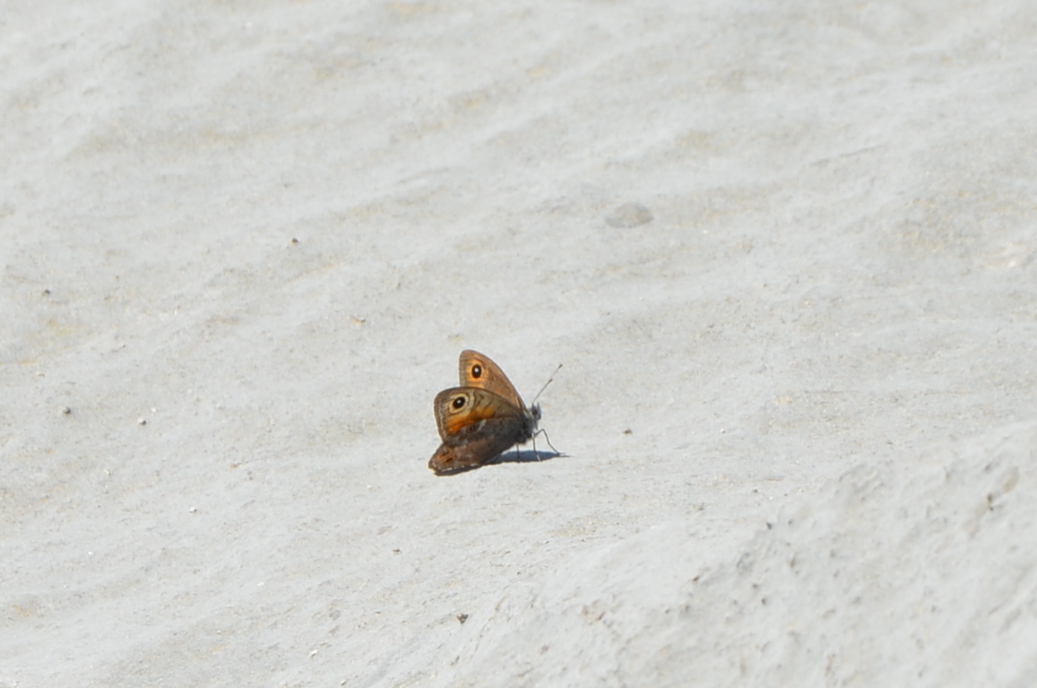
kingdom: Animalia
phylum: Arthropoda
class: Insecta
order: Lepidoptera
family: Nymphalidae
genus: Pararge
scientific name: Pararge Lasiommata maera
